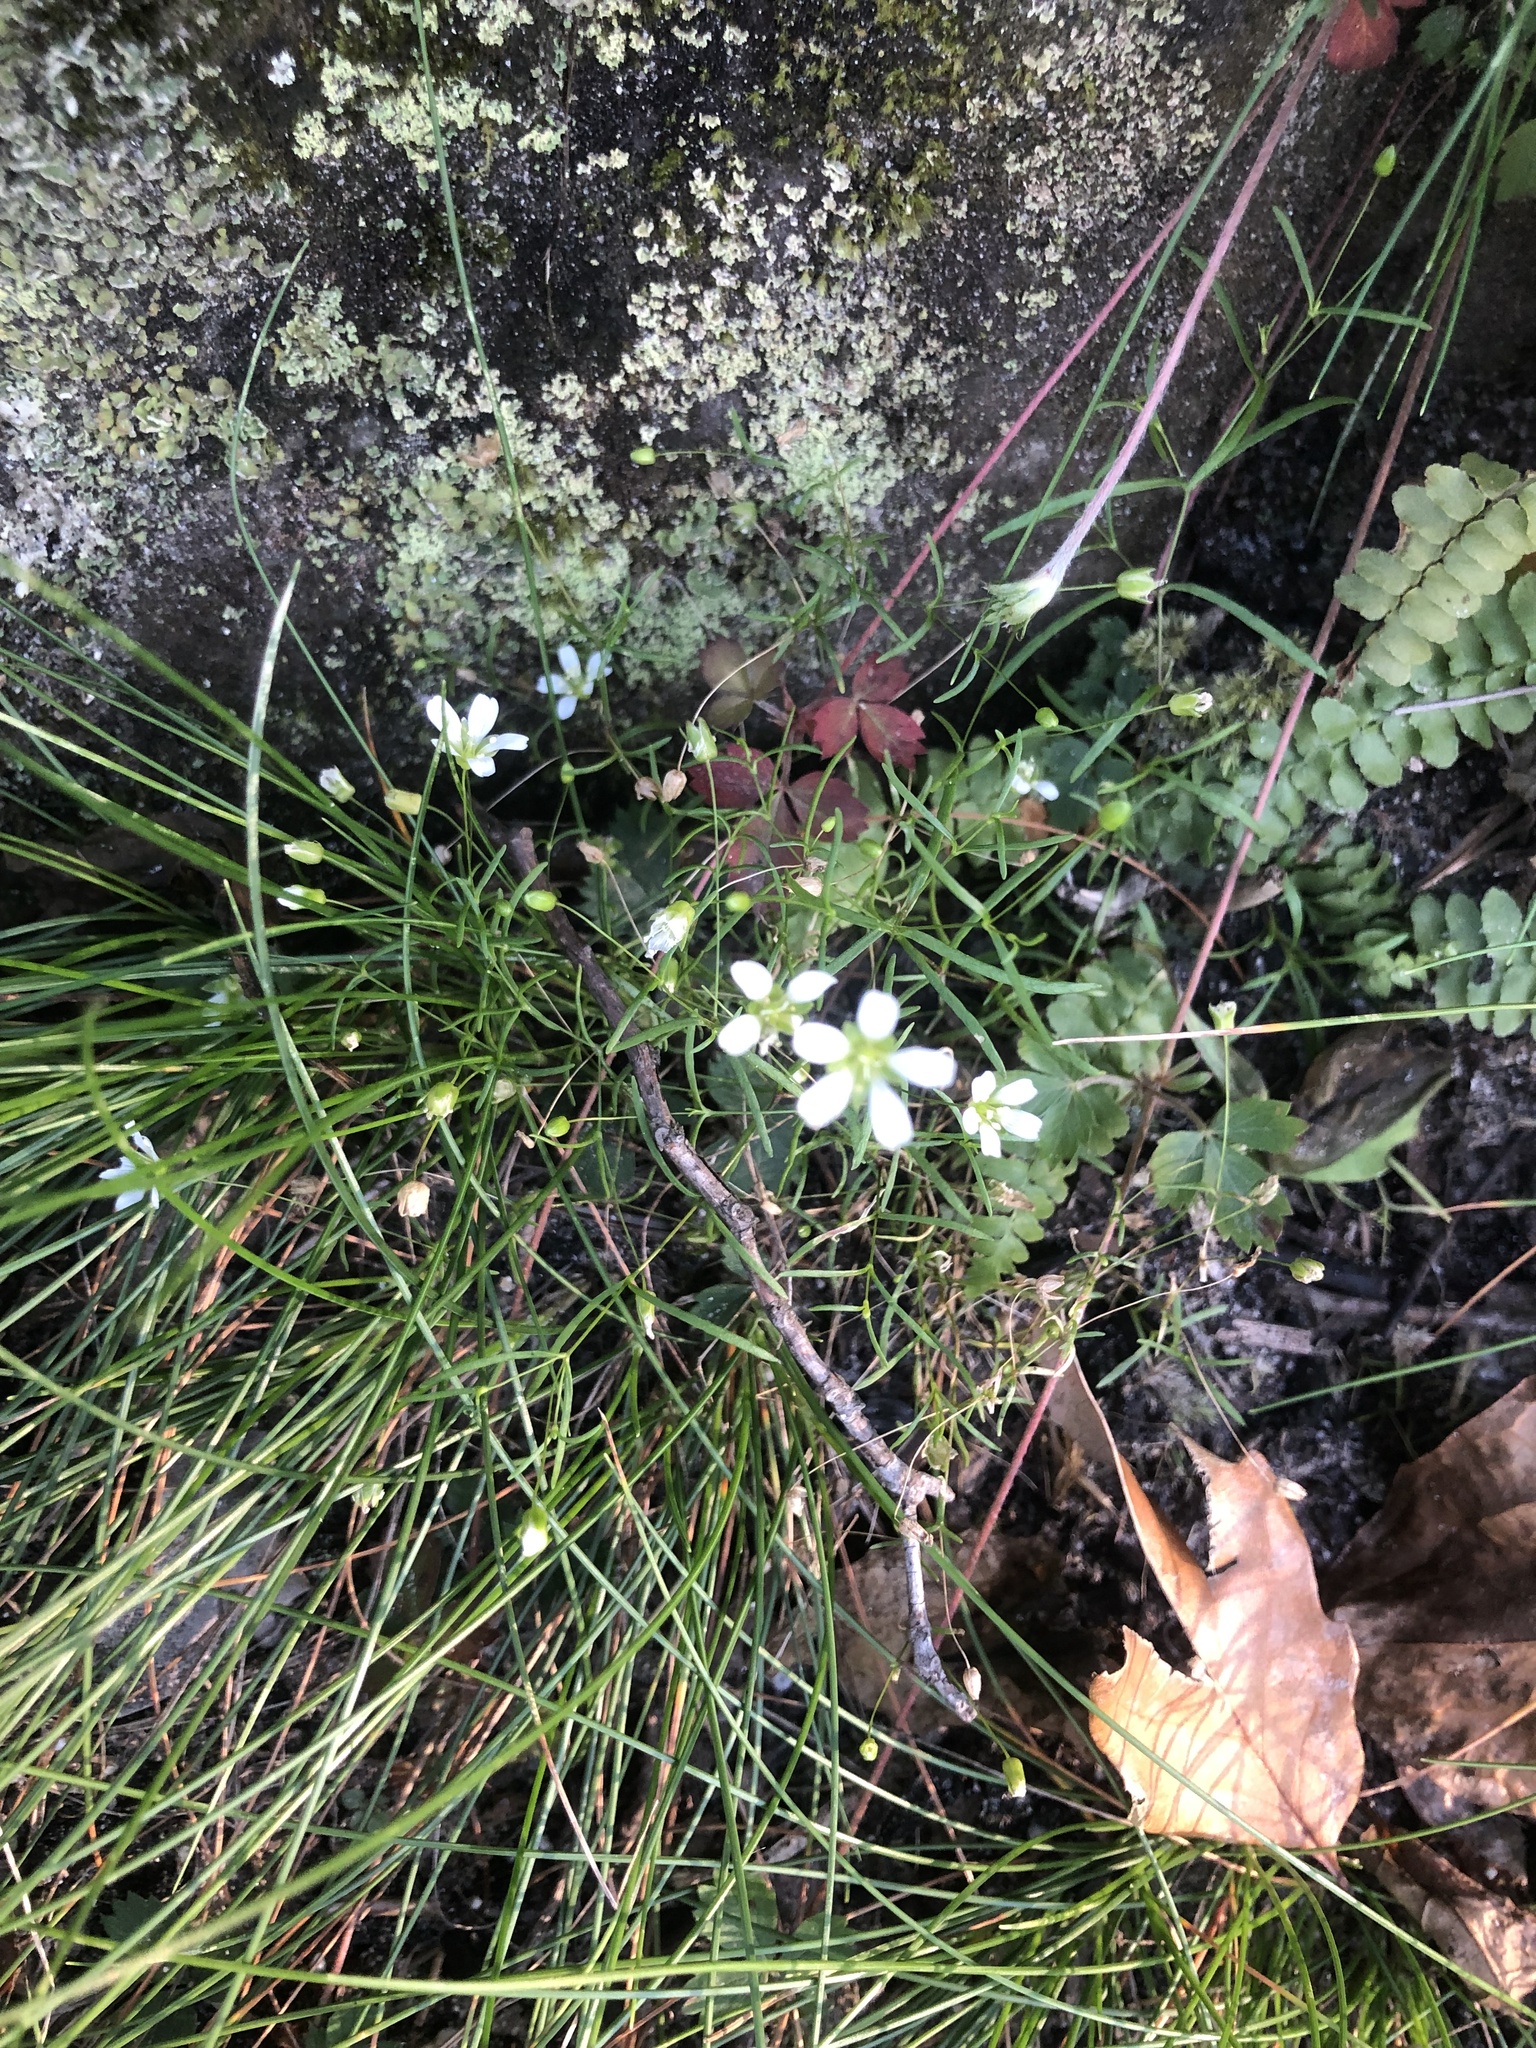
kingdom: Plantae
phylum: Tracheophyta
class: Magnoliopsida
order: Caryophyllales
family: Caryophyllaceae
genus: Geocarpon
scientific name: Geocarpon groenlandicum
